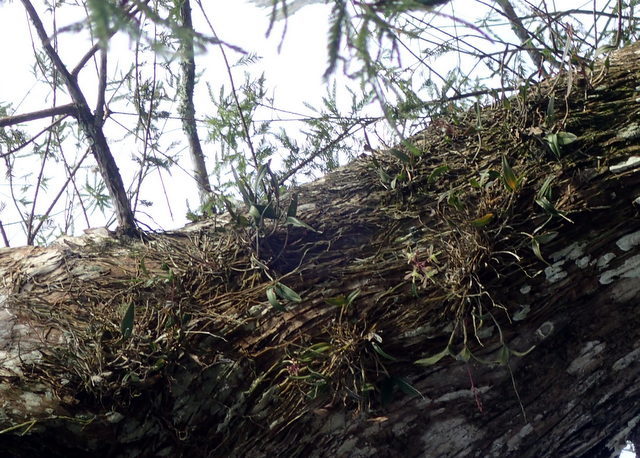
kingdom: Plantae
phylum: Tracheophyta
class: Liliopsida
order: Asparagales
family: Orchidaceae
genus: Epidendrum
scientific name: Epidendrum conopseum
